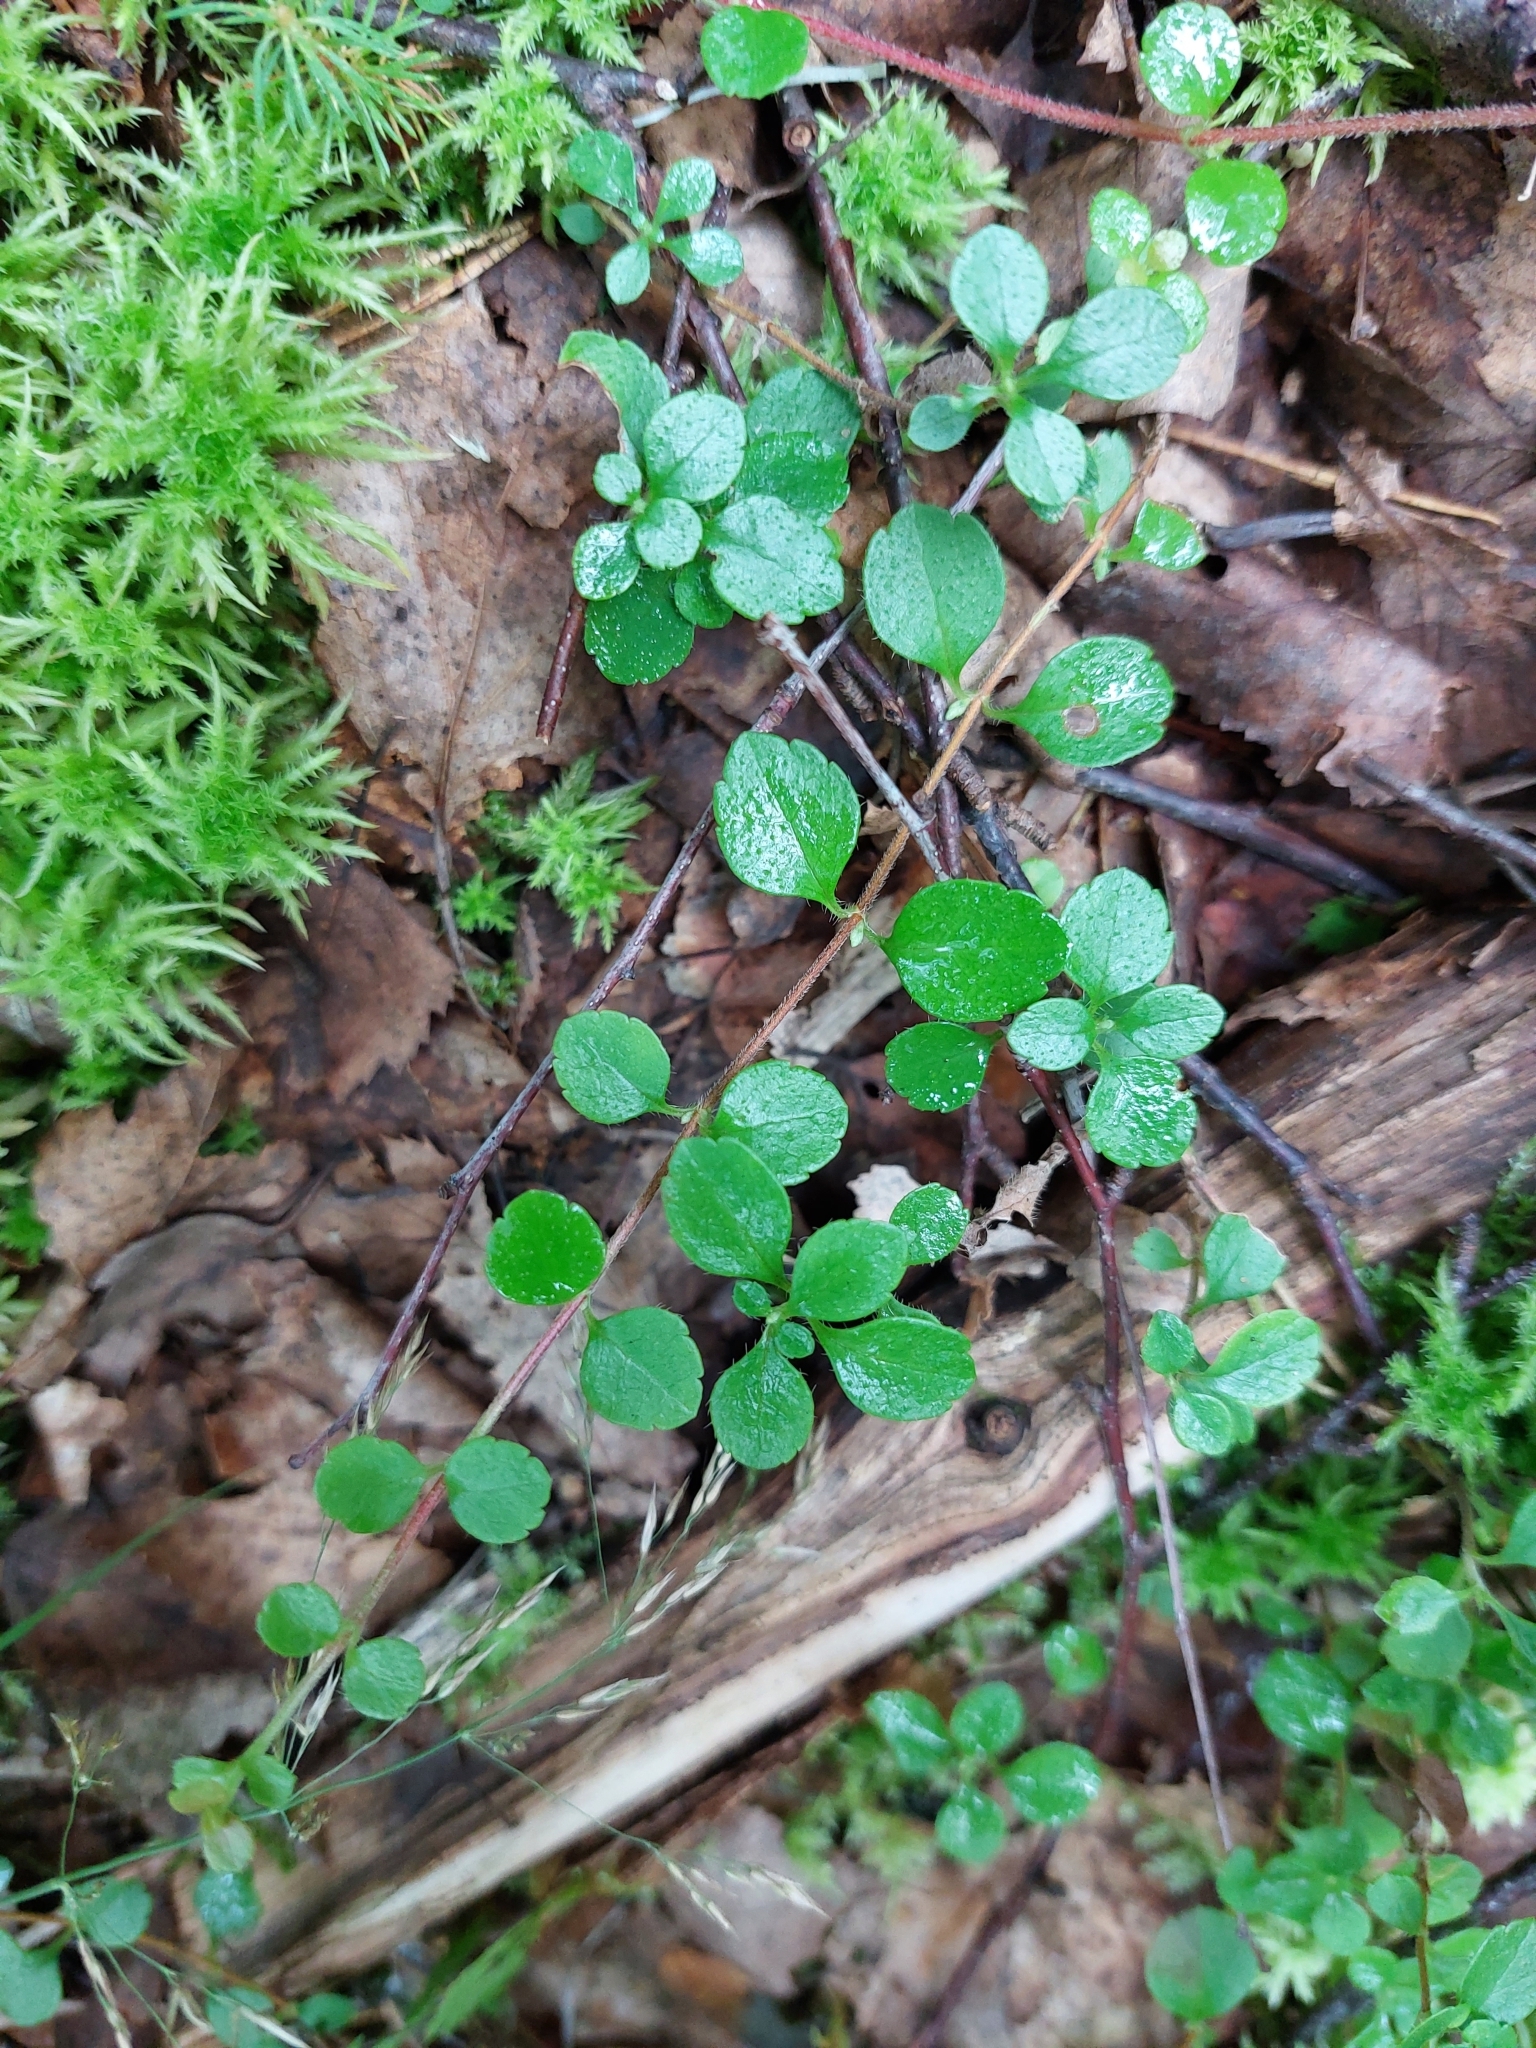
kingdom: Plantae
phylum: Tracheophyta
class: Magnoliopsida
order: Dipsacales
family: Caprifoliaceae
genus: Linnaea
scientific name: Linnaea borealis
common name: Twinflower
